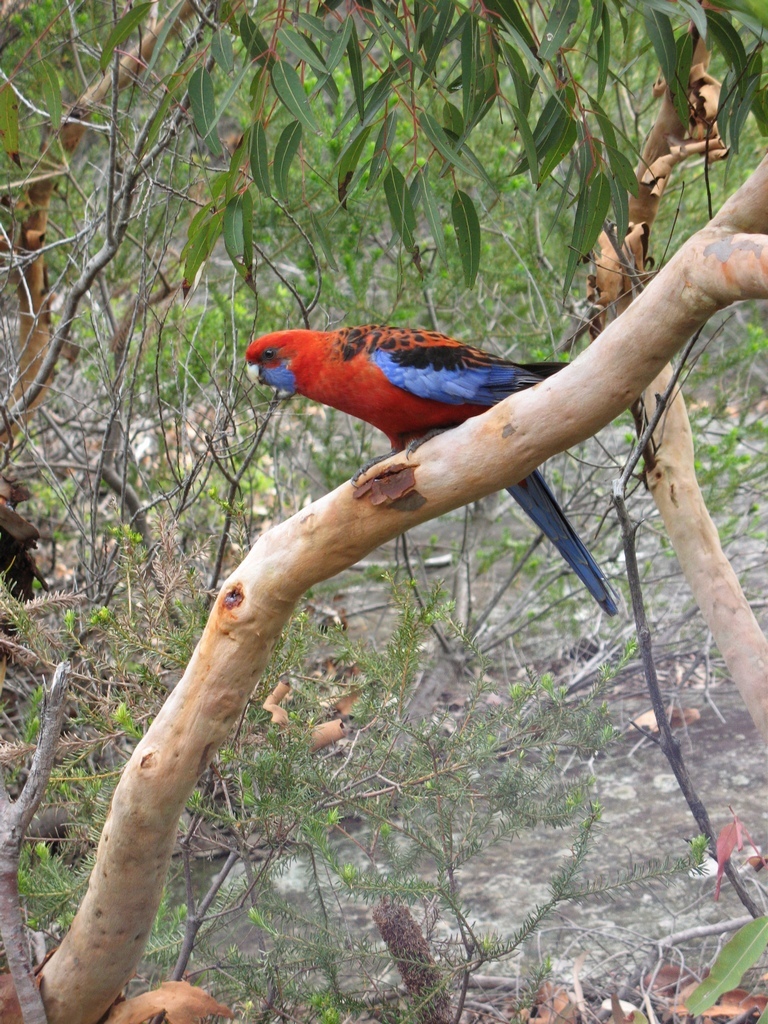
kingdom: Animalia
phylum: Chordata
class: Aves
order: Psittaciformes
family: Psittacidae
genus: Platycercus
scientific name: Platycercus elegans
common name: Crimson rosella
